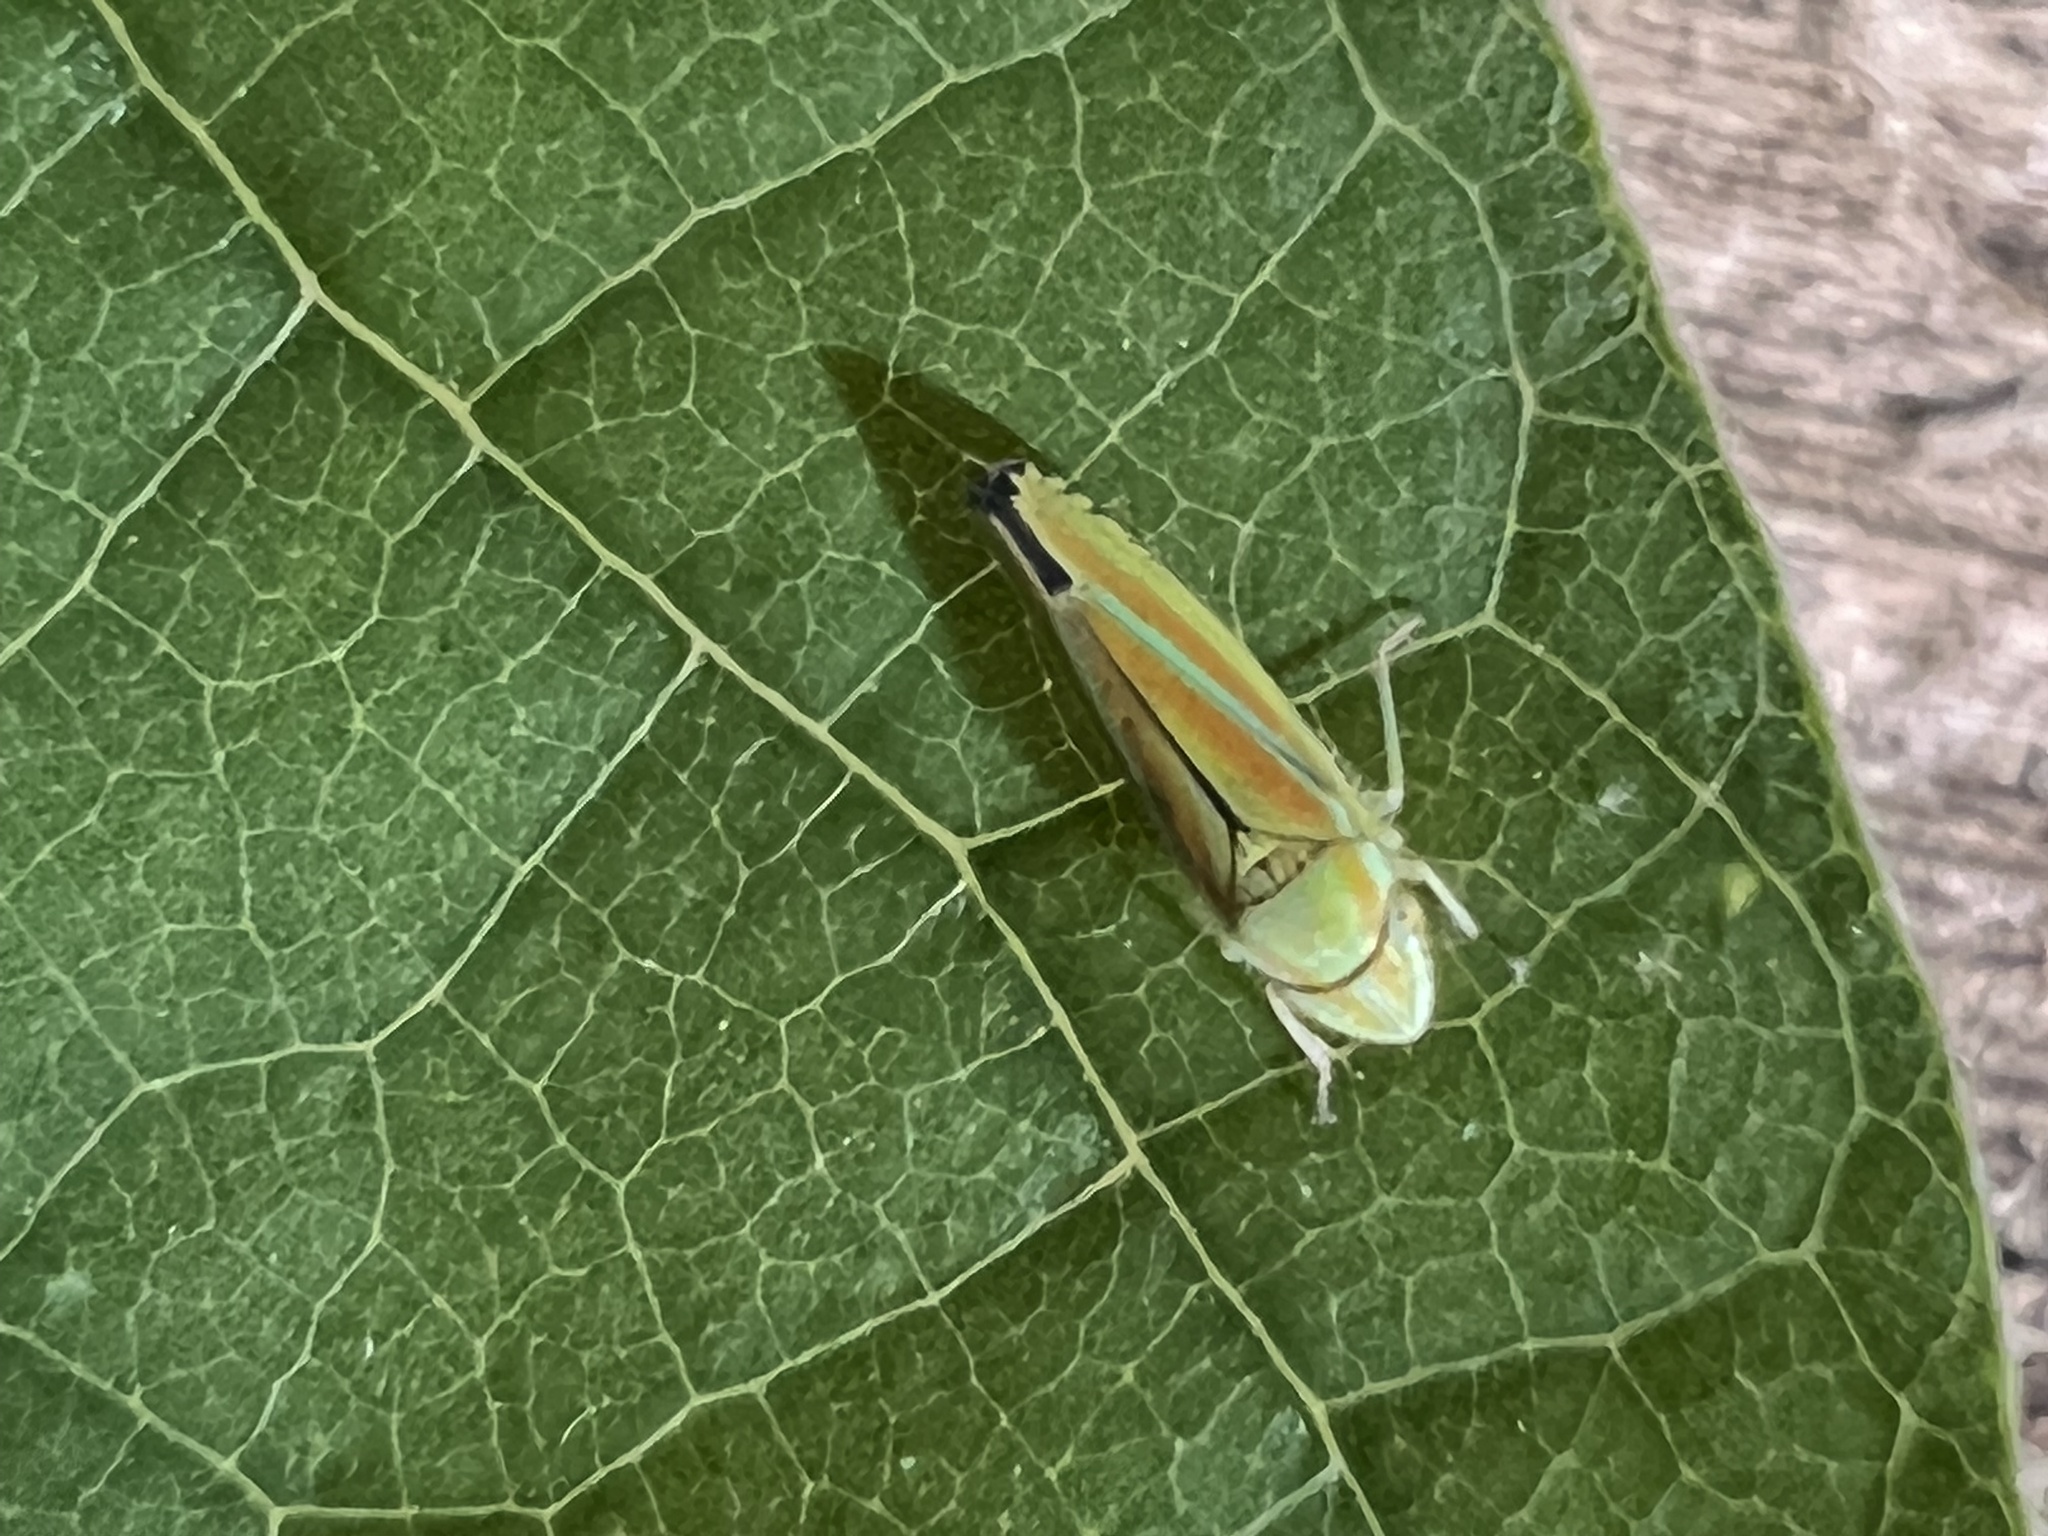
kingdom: Animalia
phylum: Arthropoda
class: Insecta
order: Hemiptera
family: Cicadellidae
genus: Graphocephala
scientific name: Graphocephala versuta
